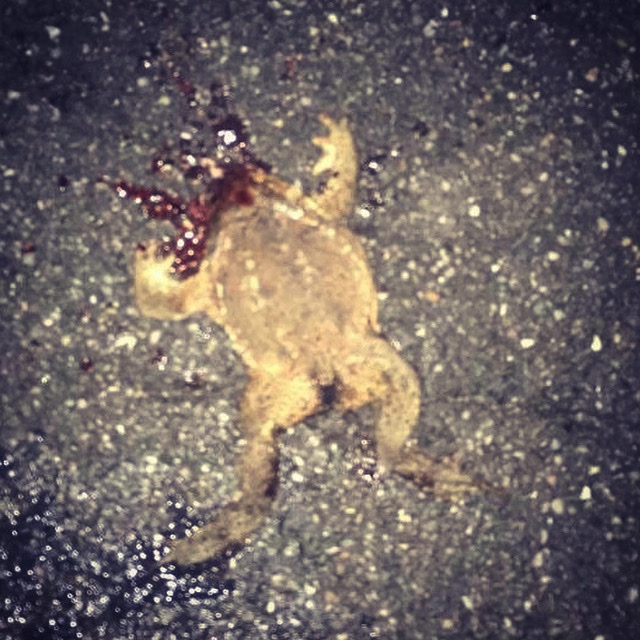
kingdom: Animalia
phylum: Chordata
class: Amphibia
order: Anura
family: Bufonidae
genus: Bufo
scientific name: Bufo bufo
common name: Common toad
